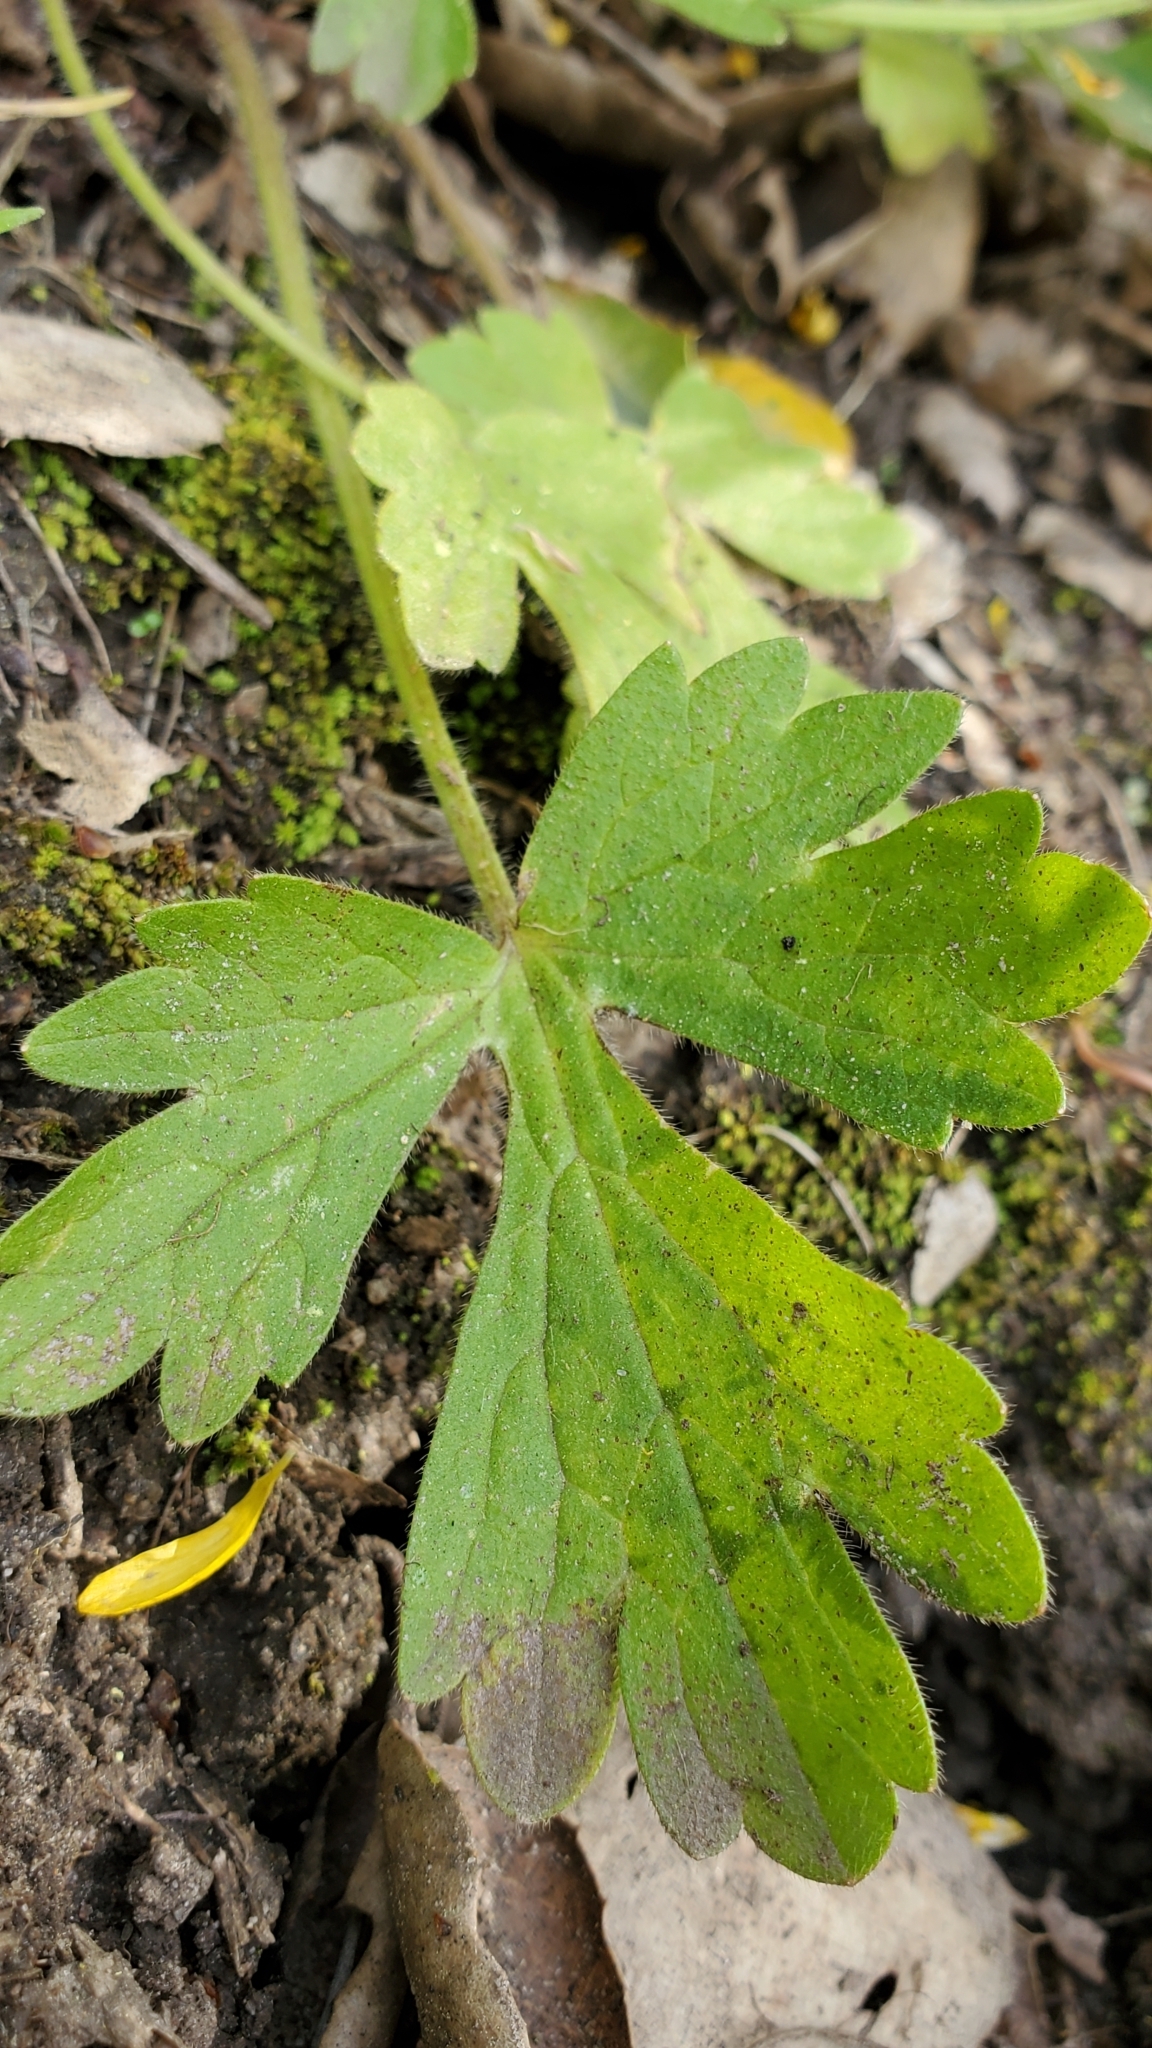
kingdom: Plantae
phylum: Tracheophyta
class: Magnoliopsida
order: Ranunculales
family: Ranunculaceae
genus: Ranunculus
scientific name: Ranunculus californicus
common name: California buttercup
